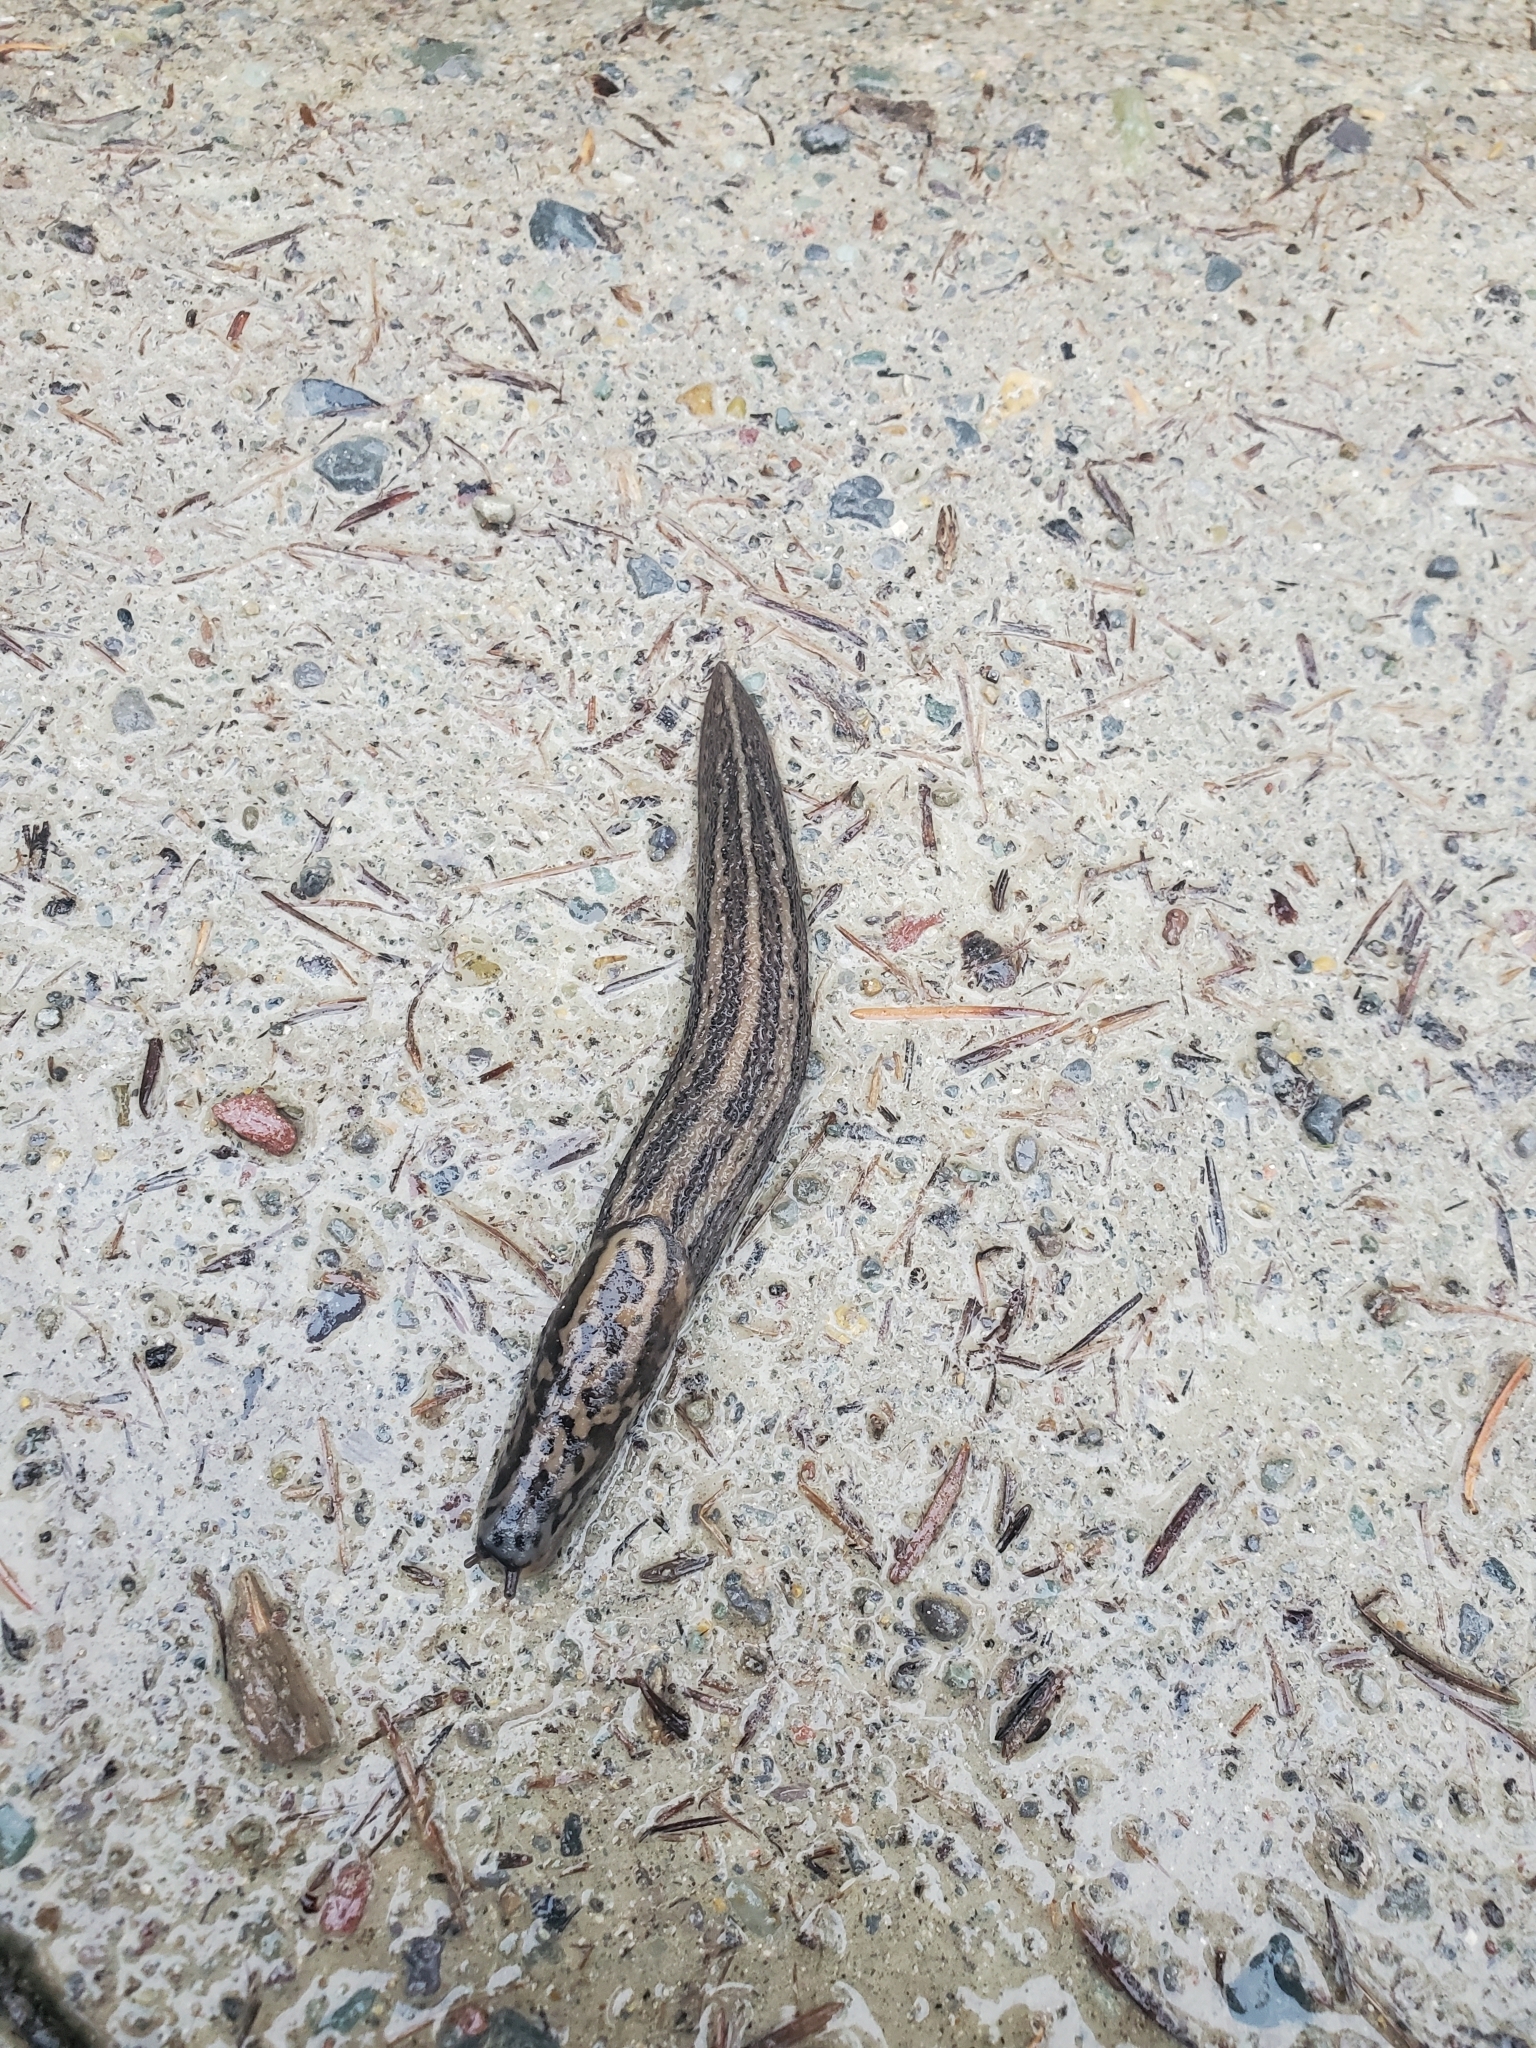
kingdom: Animalia
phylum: Mollusca
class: Gastropoda
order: Stylommatophora
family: Limacidae
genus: Limax
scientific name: Limax maximus
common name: Great grey slug
